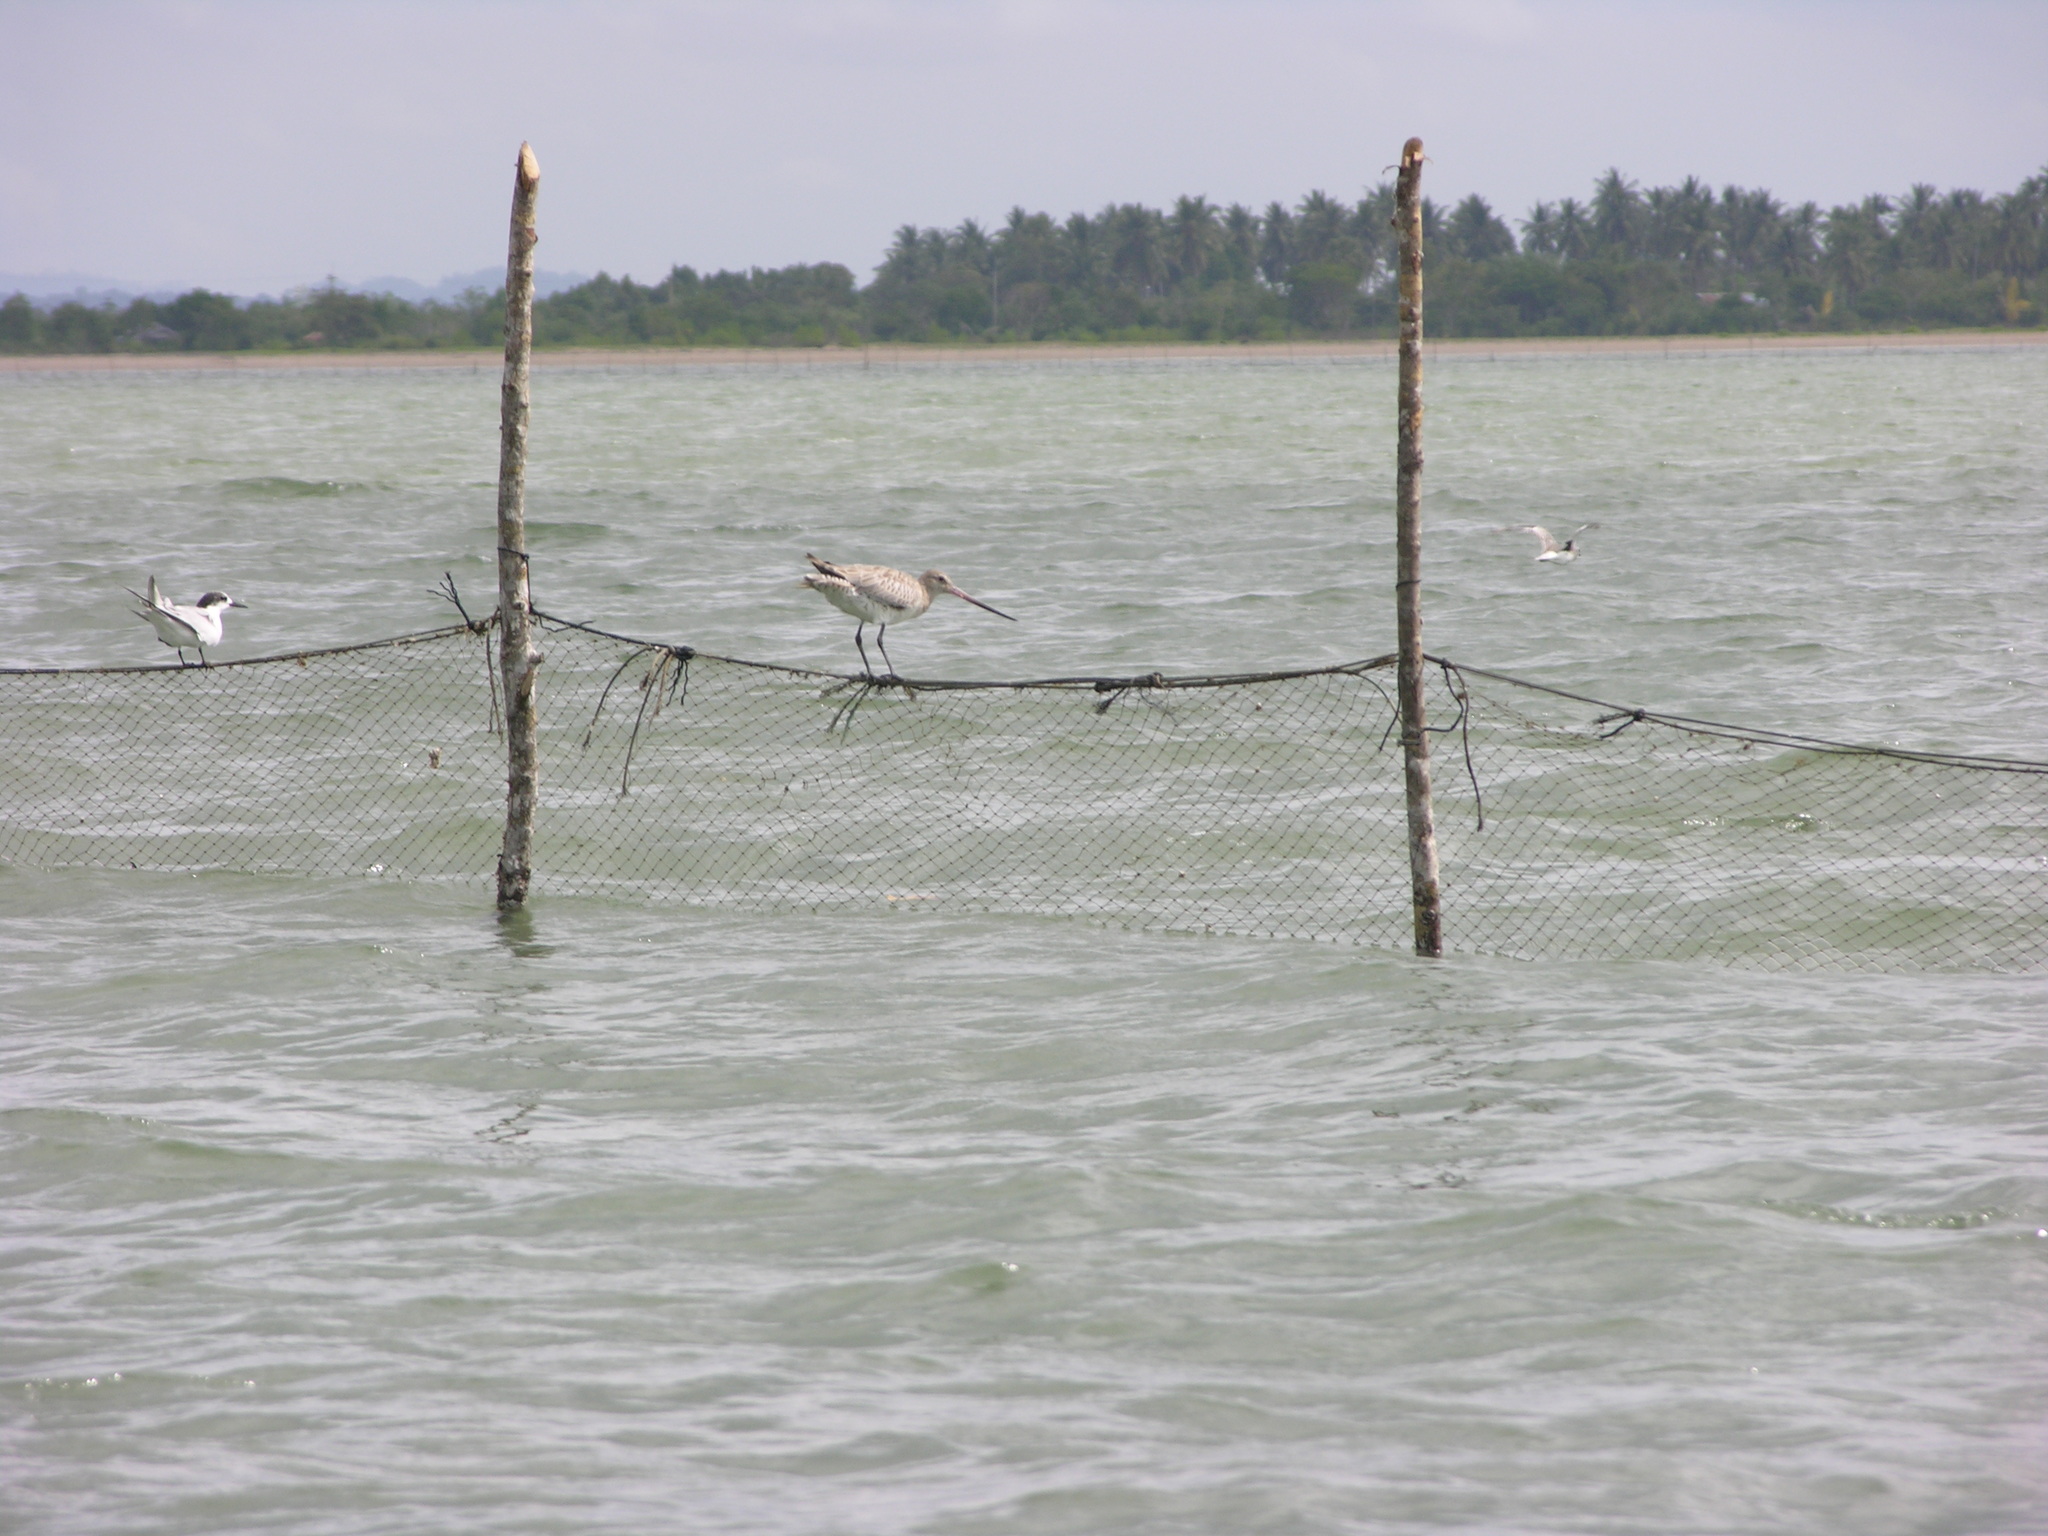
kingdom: Animalia
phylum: Chordata
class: Aves
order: Charadriiformes
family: Scolopacidae
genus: Limosa
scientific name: Limosa lapponica
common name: Bar-tailed godwit
